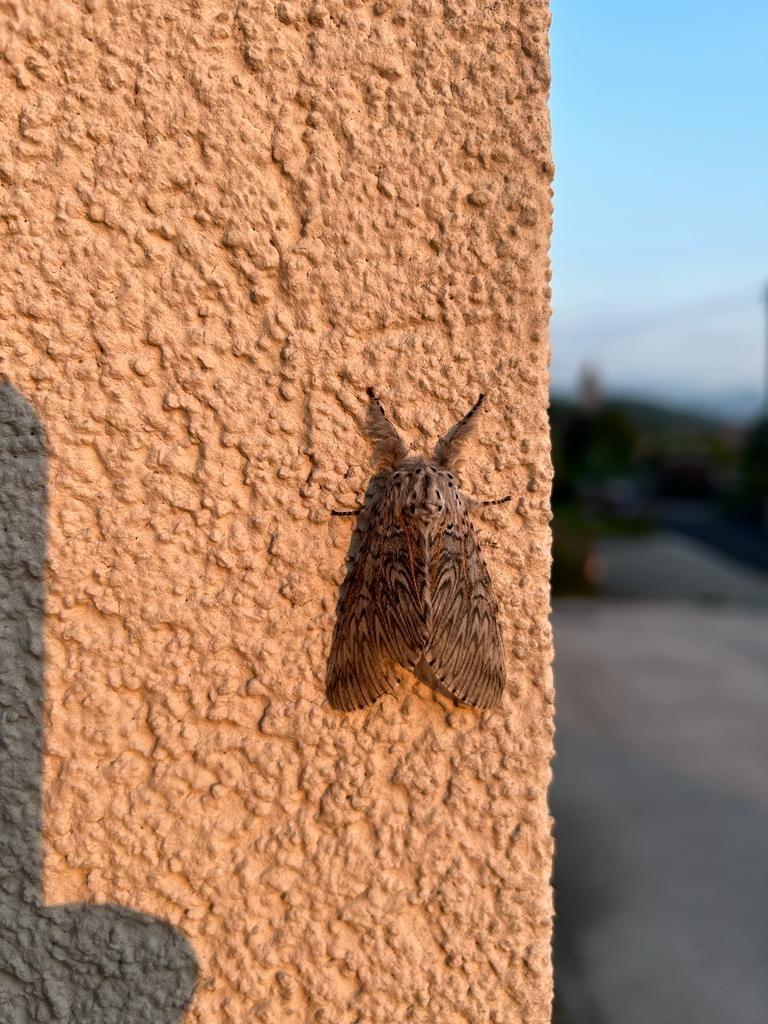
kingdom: Animalia
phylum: Arthropoda
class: Insecta
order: Lepidoptera
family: Notodontidae
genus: Cerura
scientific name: Cerura vinula
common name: Puss moth
